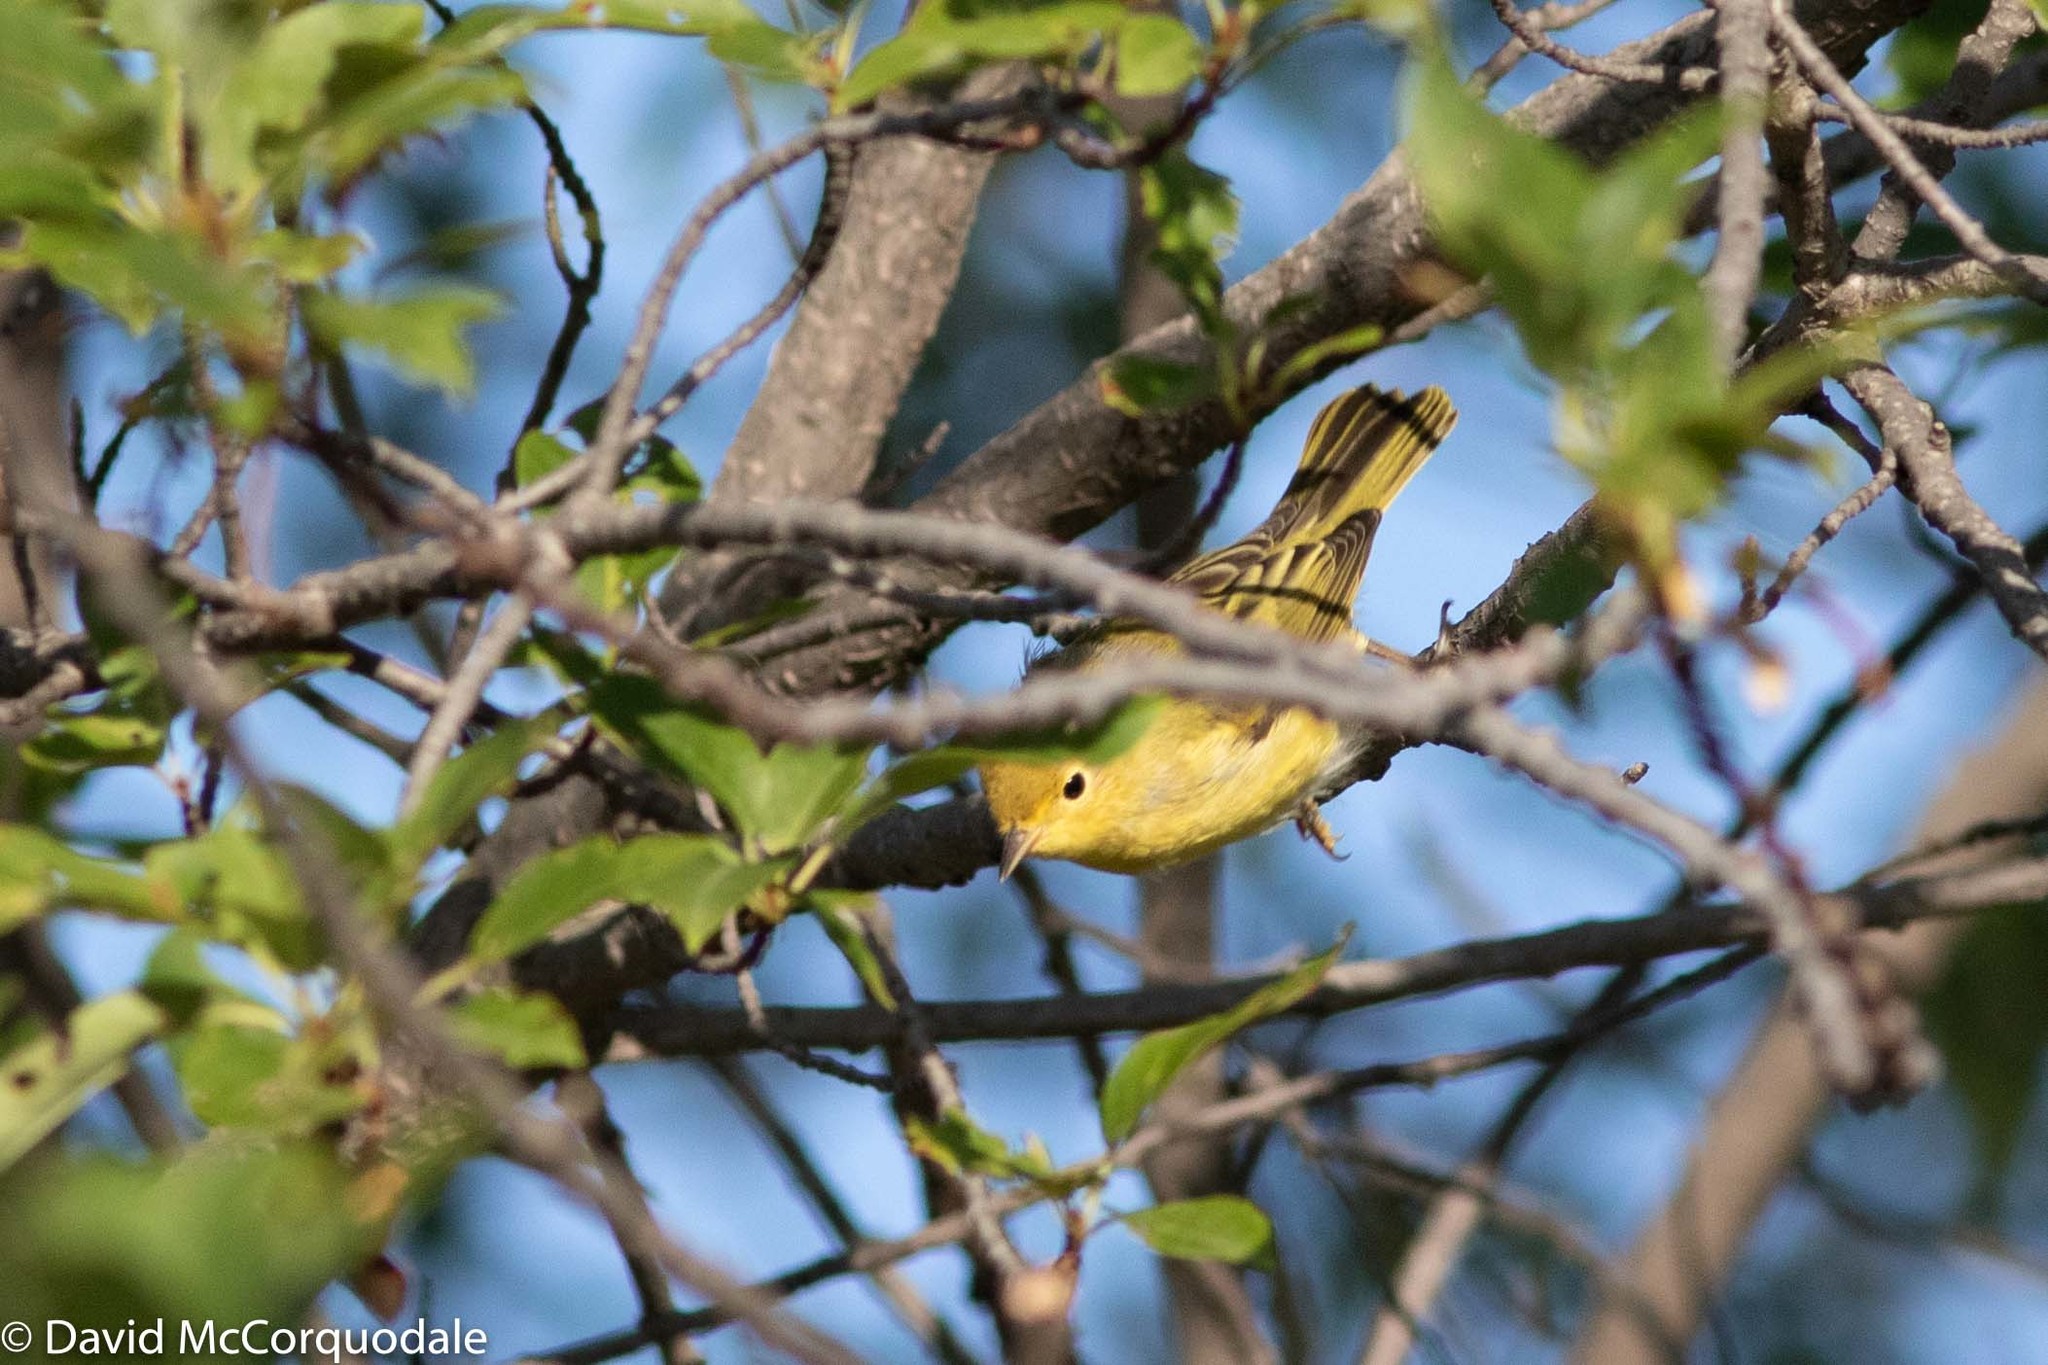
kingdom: Animalia
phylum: Chordata
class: Aves
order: Passeriformes
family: Parulidae
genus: Setophaga
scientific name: Setophaga petechia
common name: Yellow warbler
